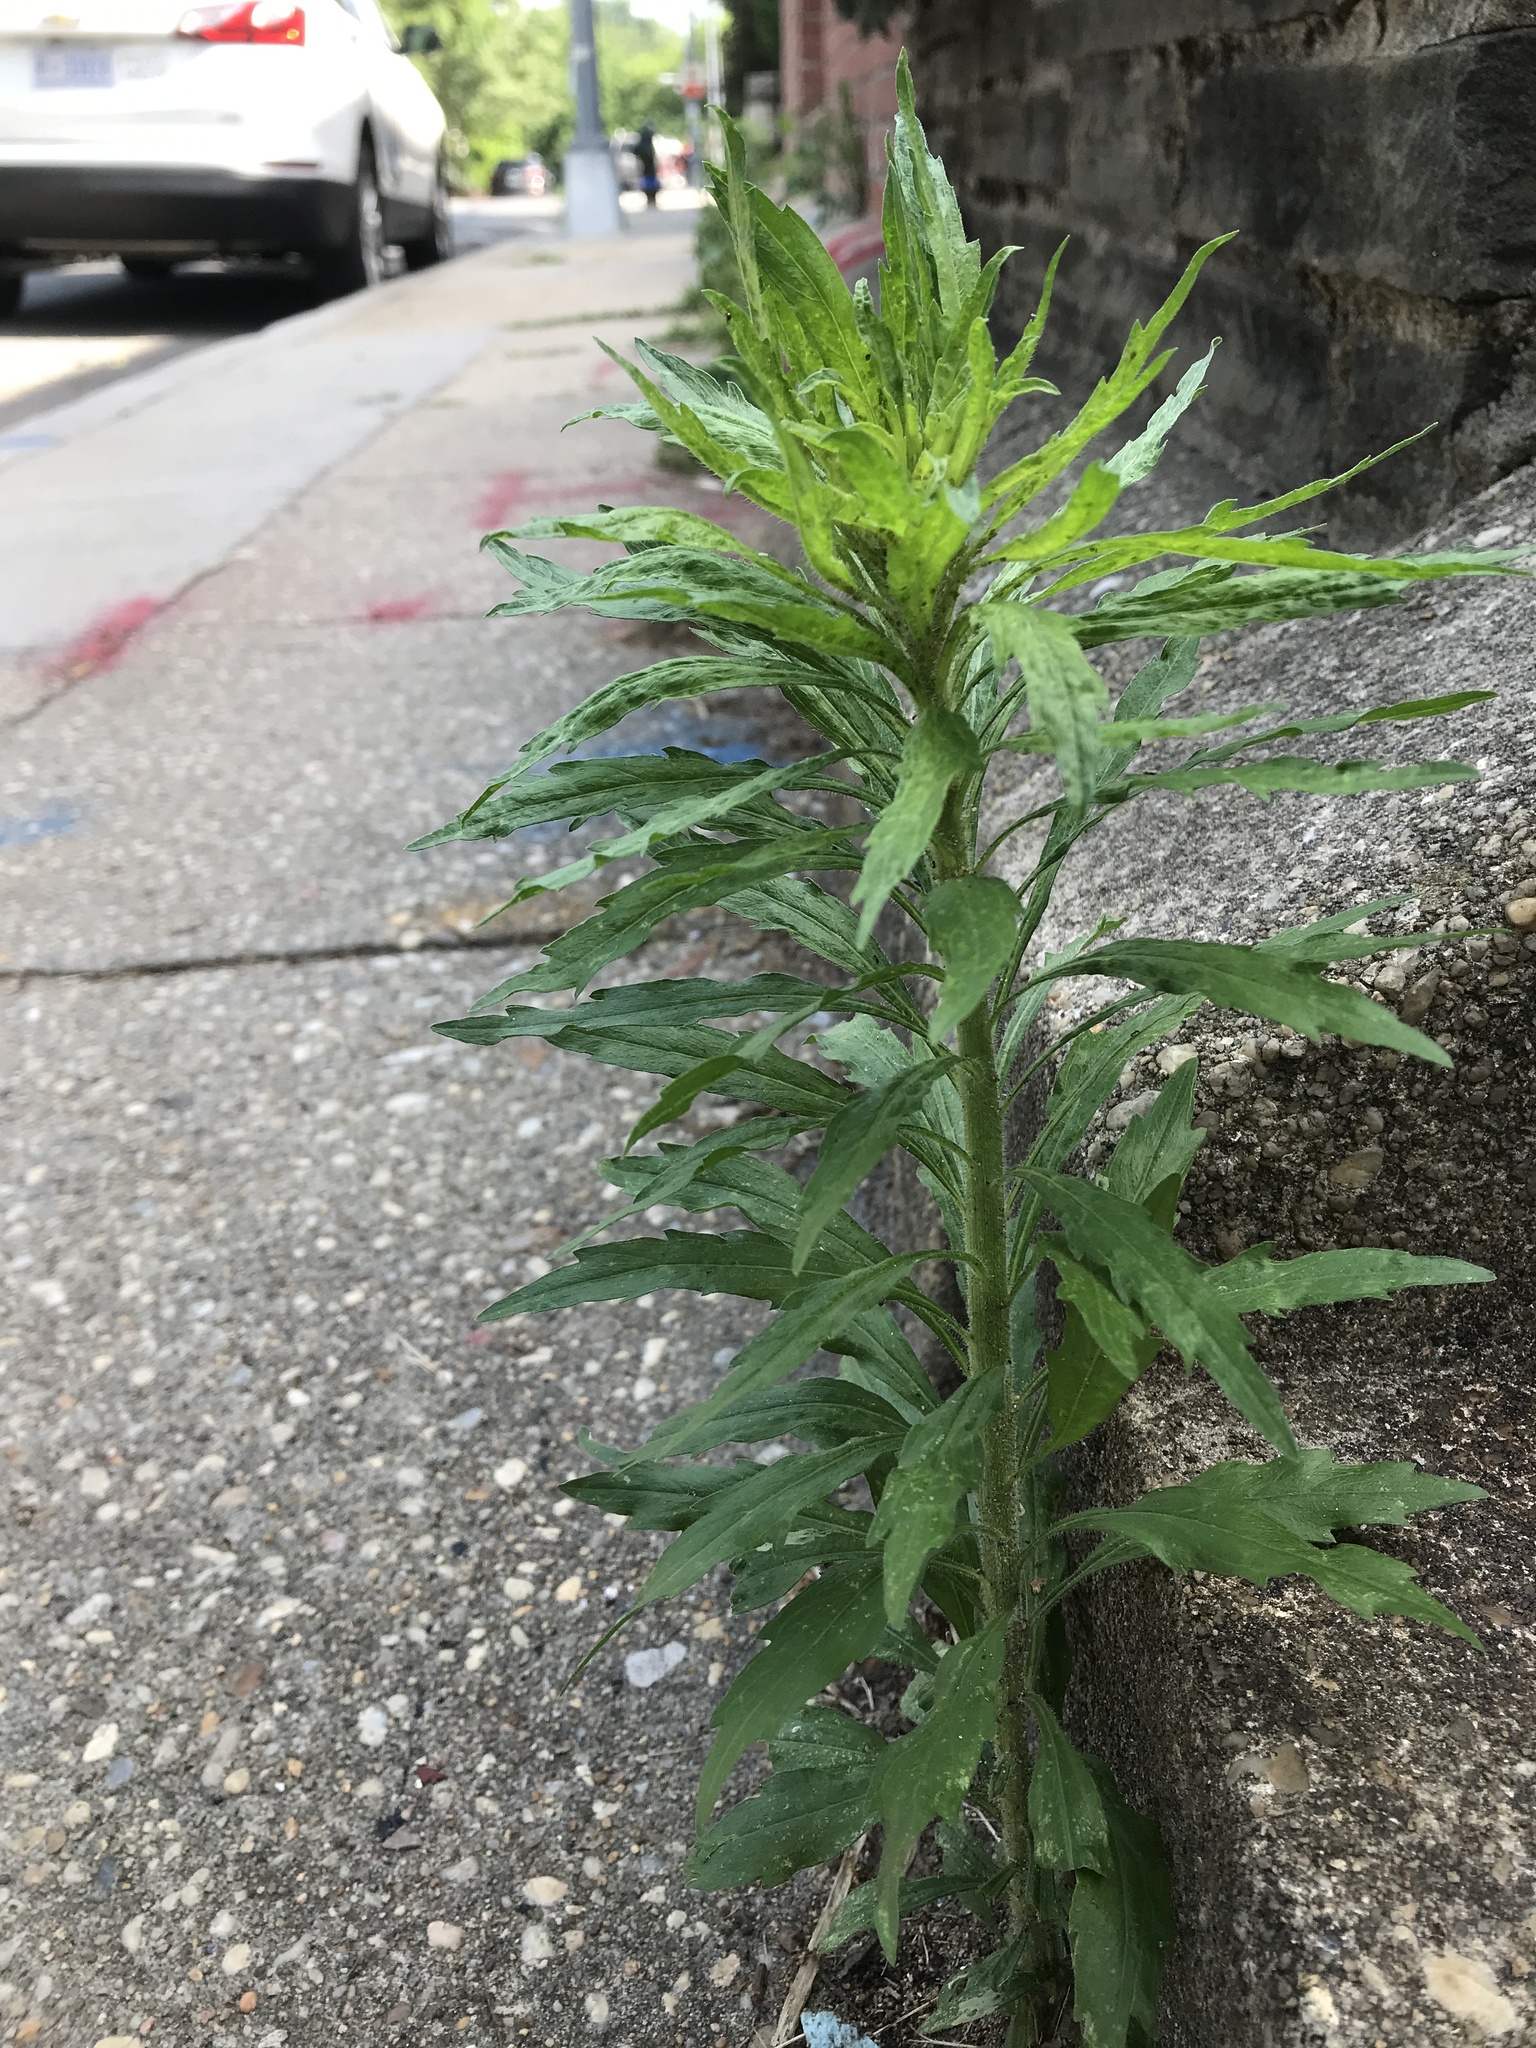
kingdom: Plantae
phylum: Tracheophyta
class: Magnoliopsida
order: Asterales
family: Asteraceae
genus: Erigeron
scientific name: Erigeron canadensis
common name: Canadian fleabane
